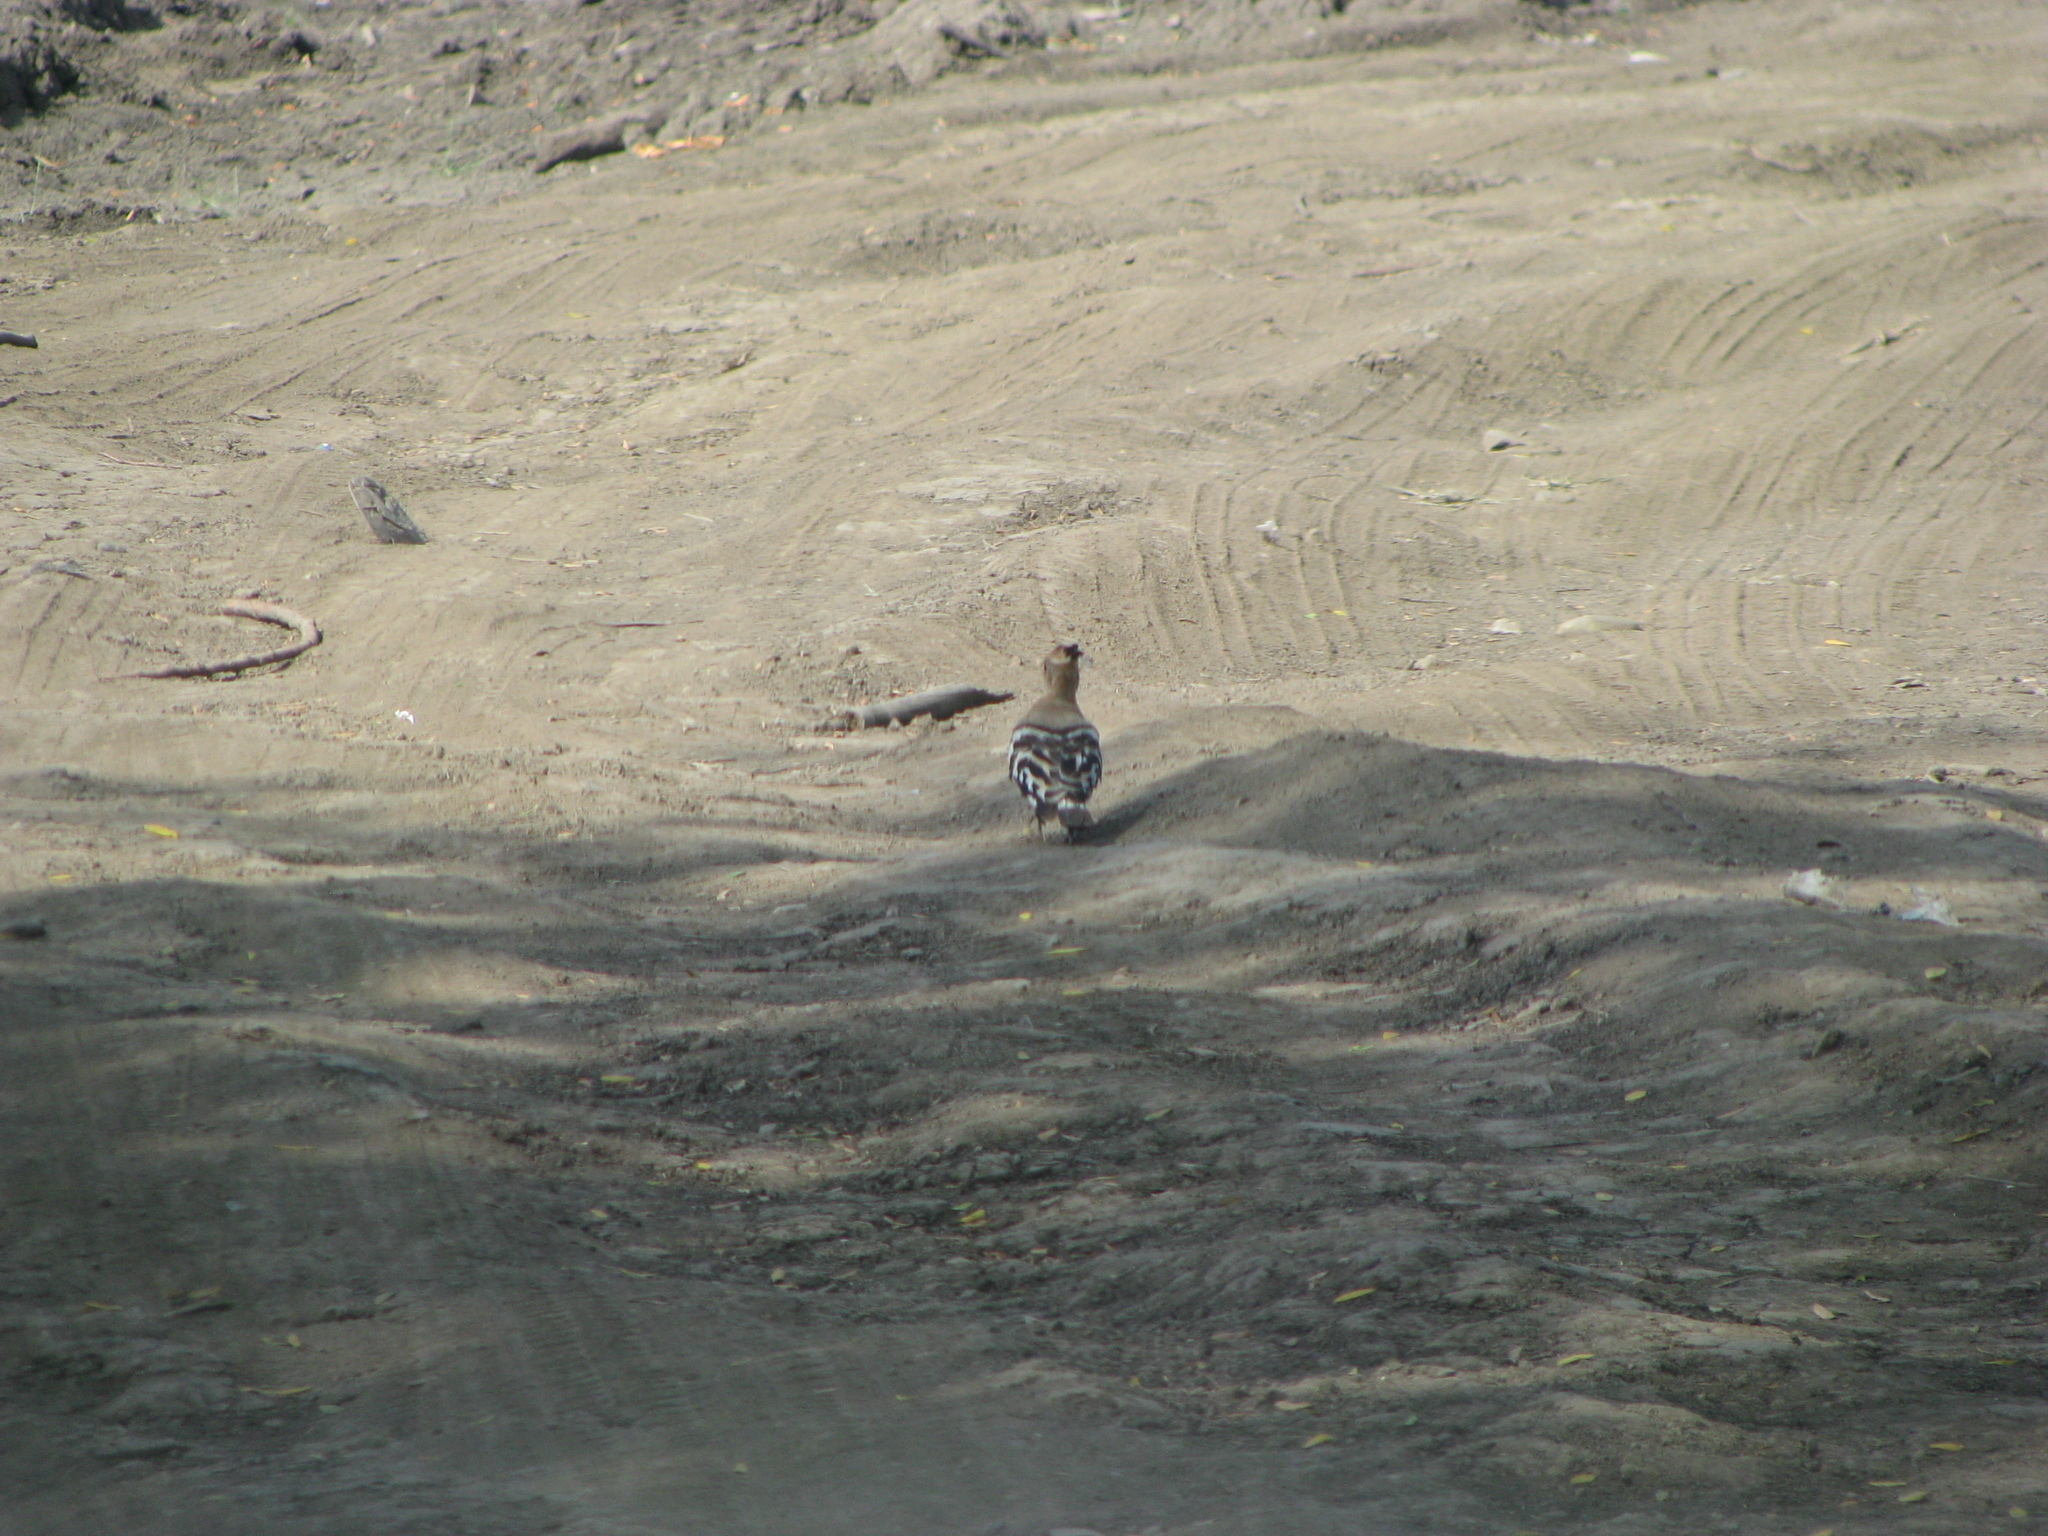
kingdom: Animalia
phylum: Chordata
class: Aves
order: Bucerotiformes
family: Upupidae
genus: Upupa
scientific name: Upupa epops
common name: Eurasian hoopoe
